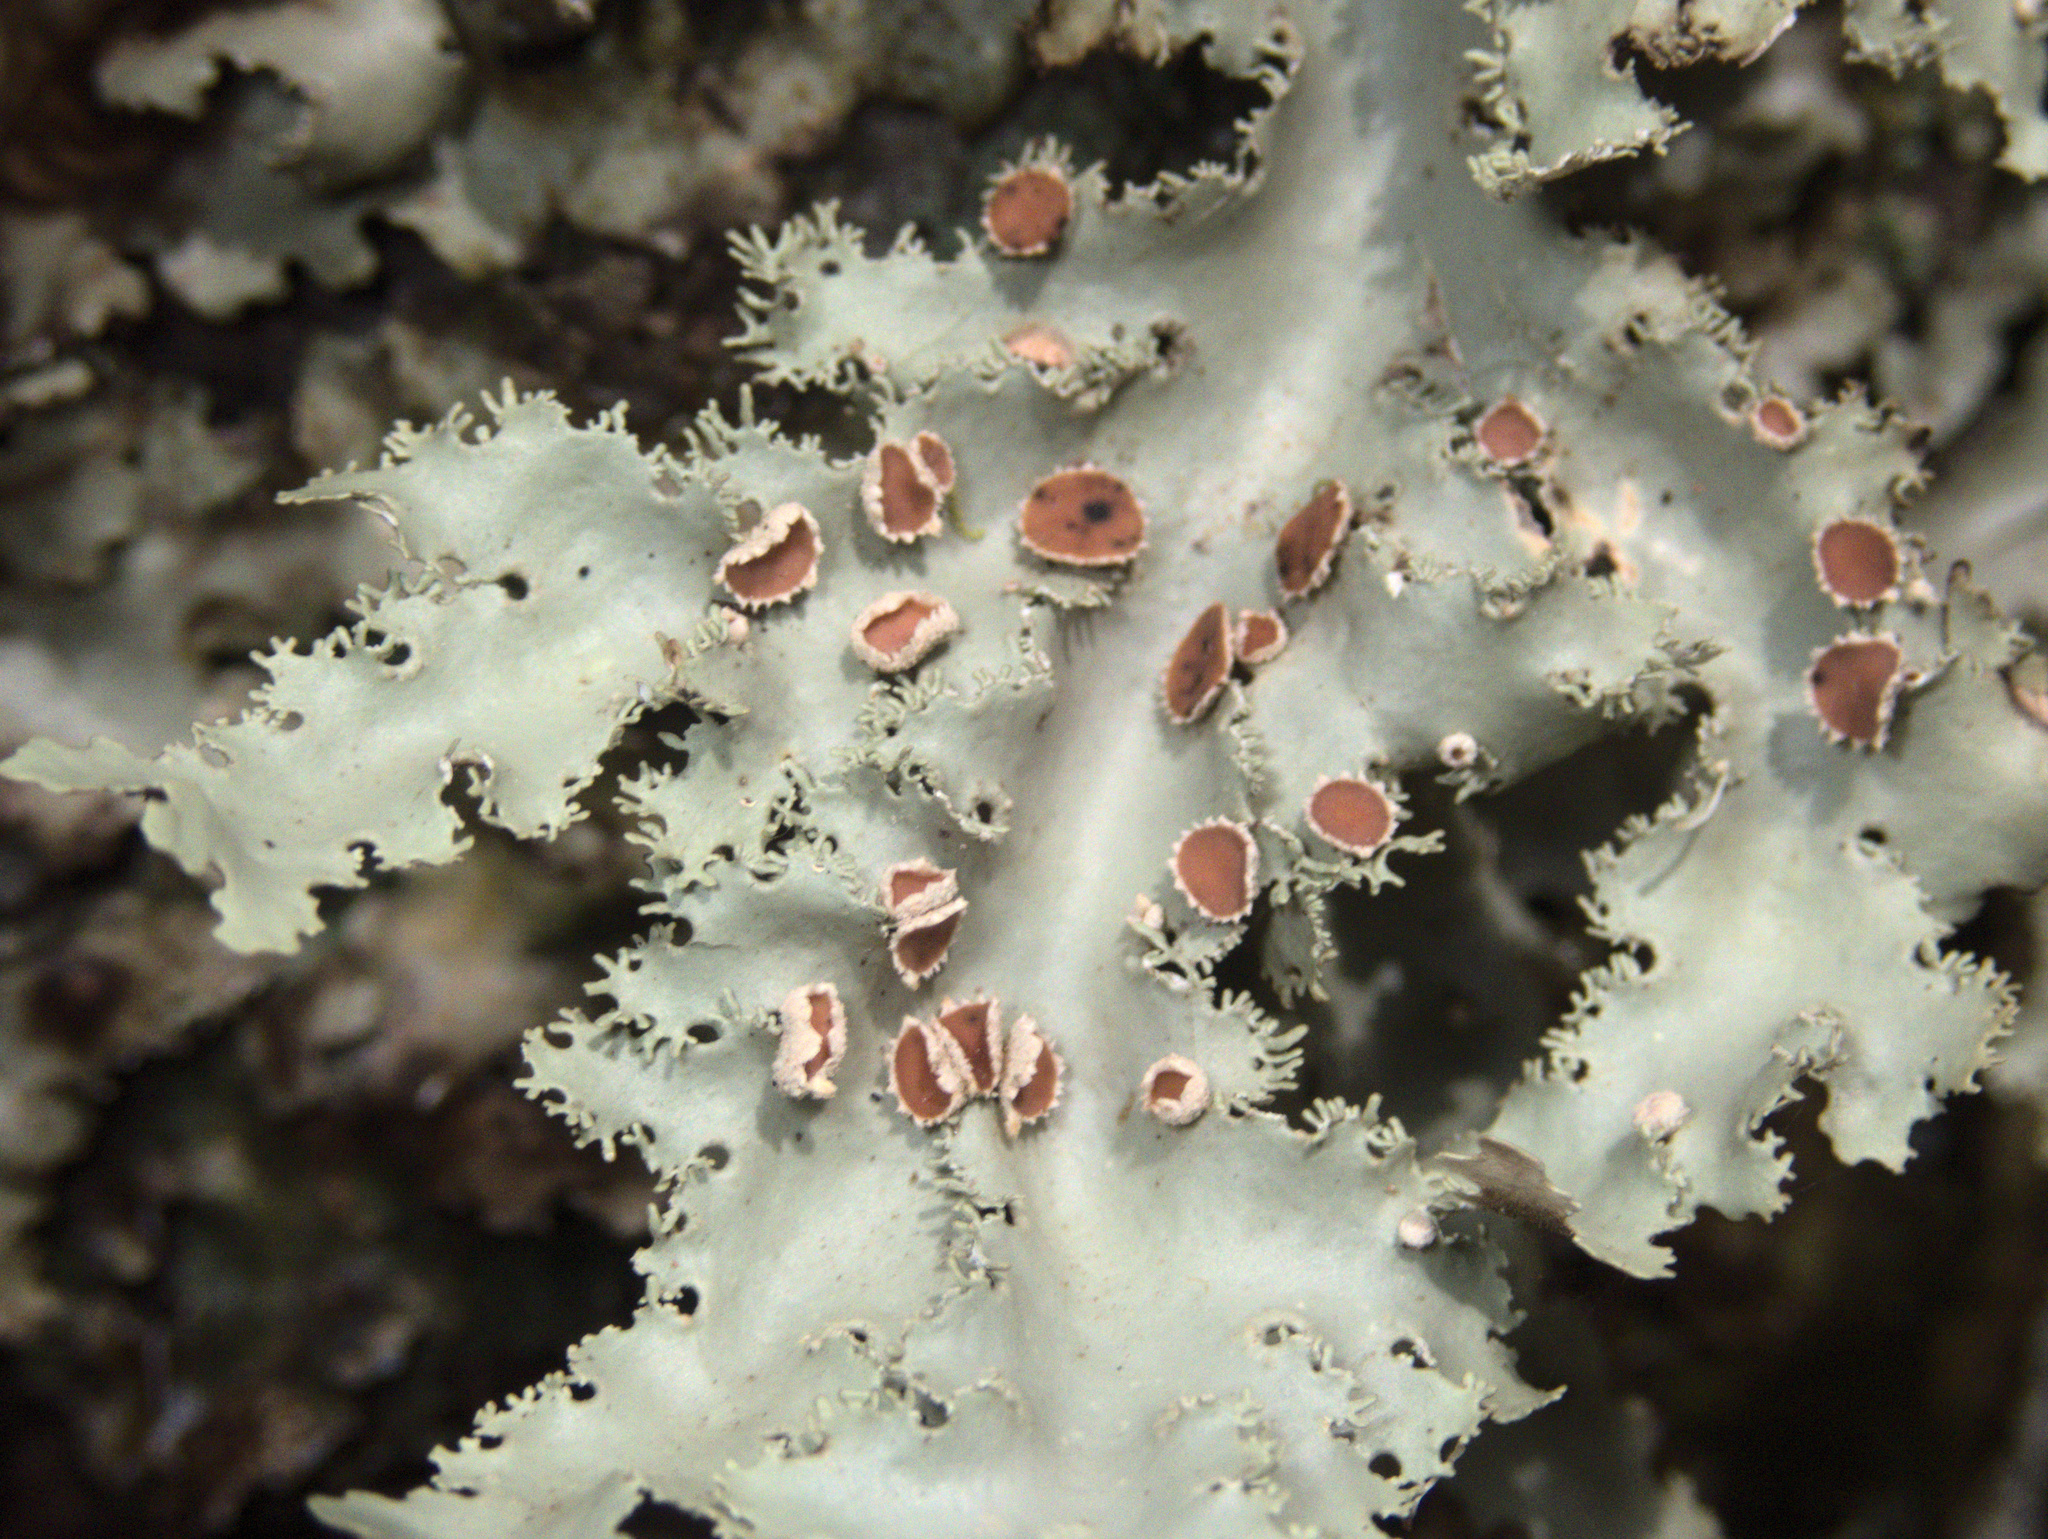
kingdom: Fungi
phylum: Ascomycota
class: Lecanoromycetes
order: Peltigerales
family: Lobariaceae
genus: Pseudocyphellaria
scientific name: Pseudocyphellaria glabra
